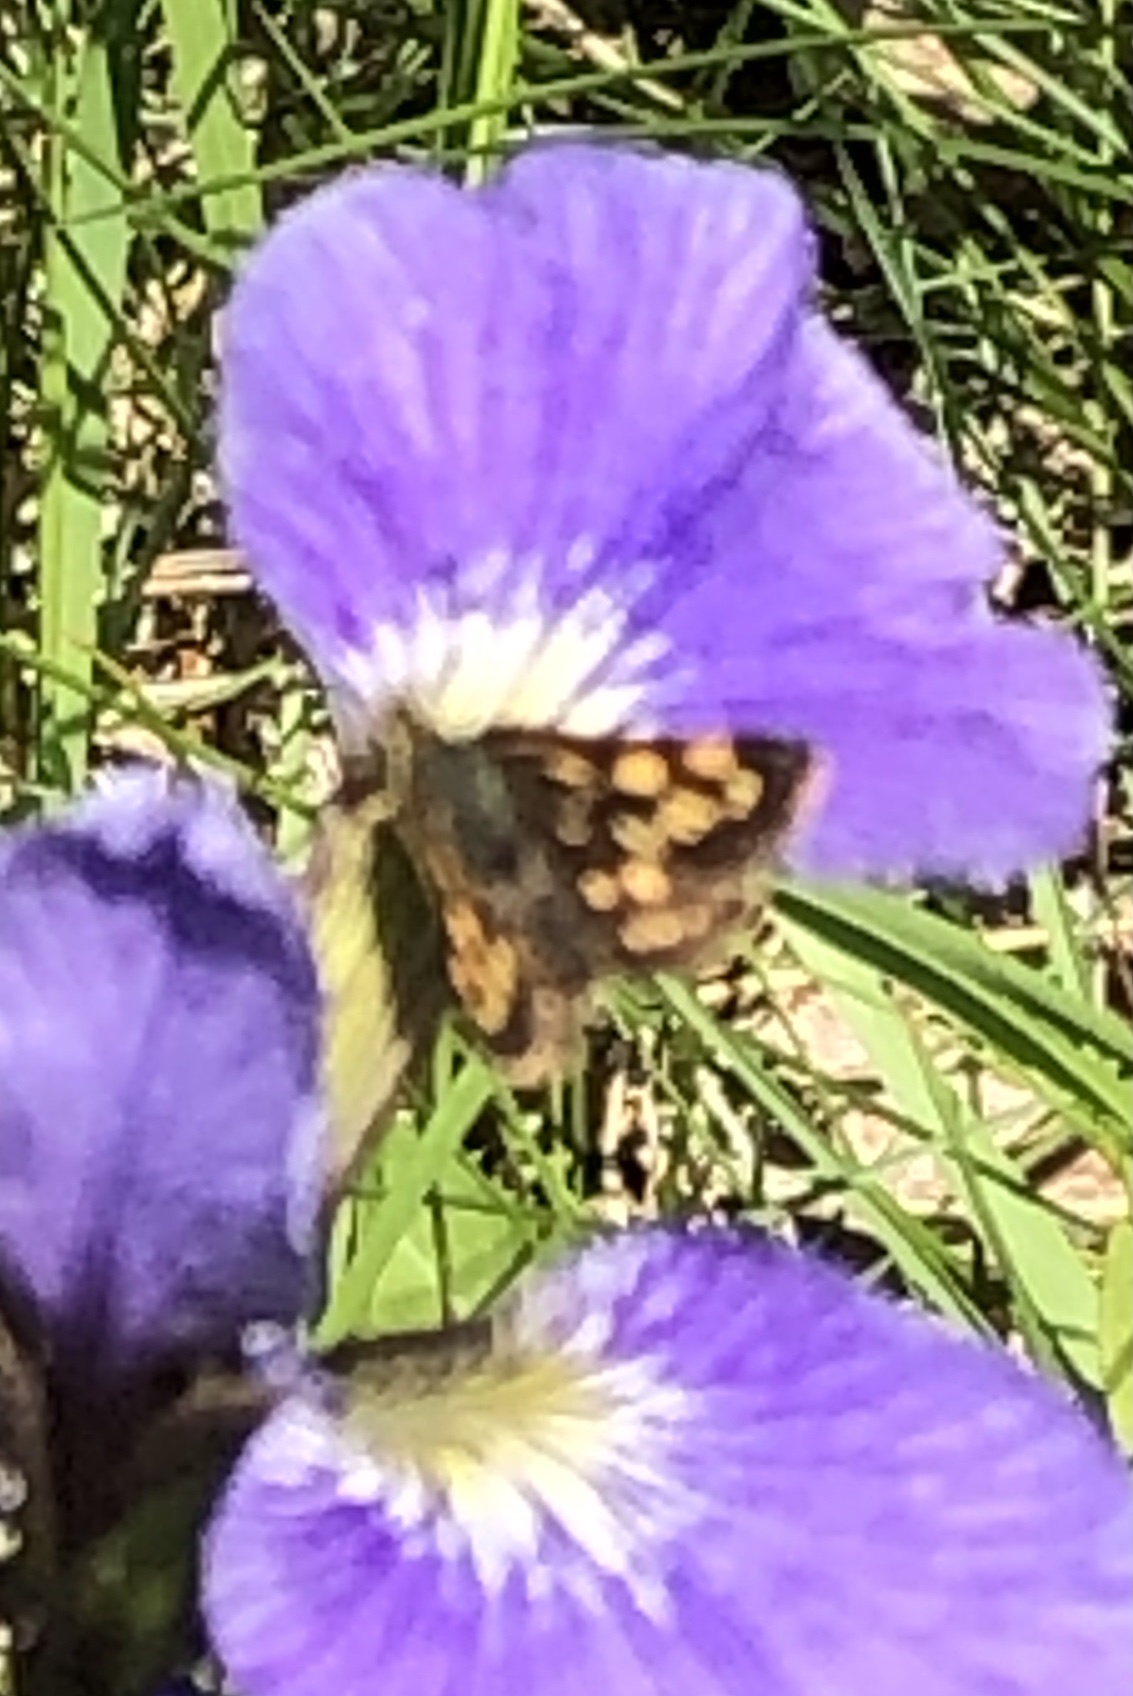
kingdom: Animalia
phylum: Arthropoda
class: Insecta
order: Lepidoptera
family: Hesperiidae
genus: Carterocephalus
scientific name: Carterocephalus mandan
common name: Arctic skipperling
